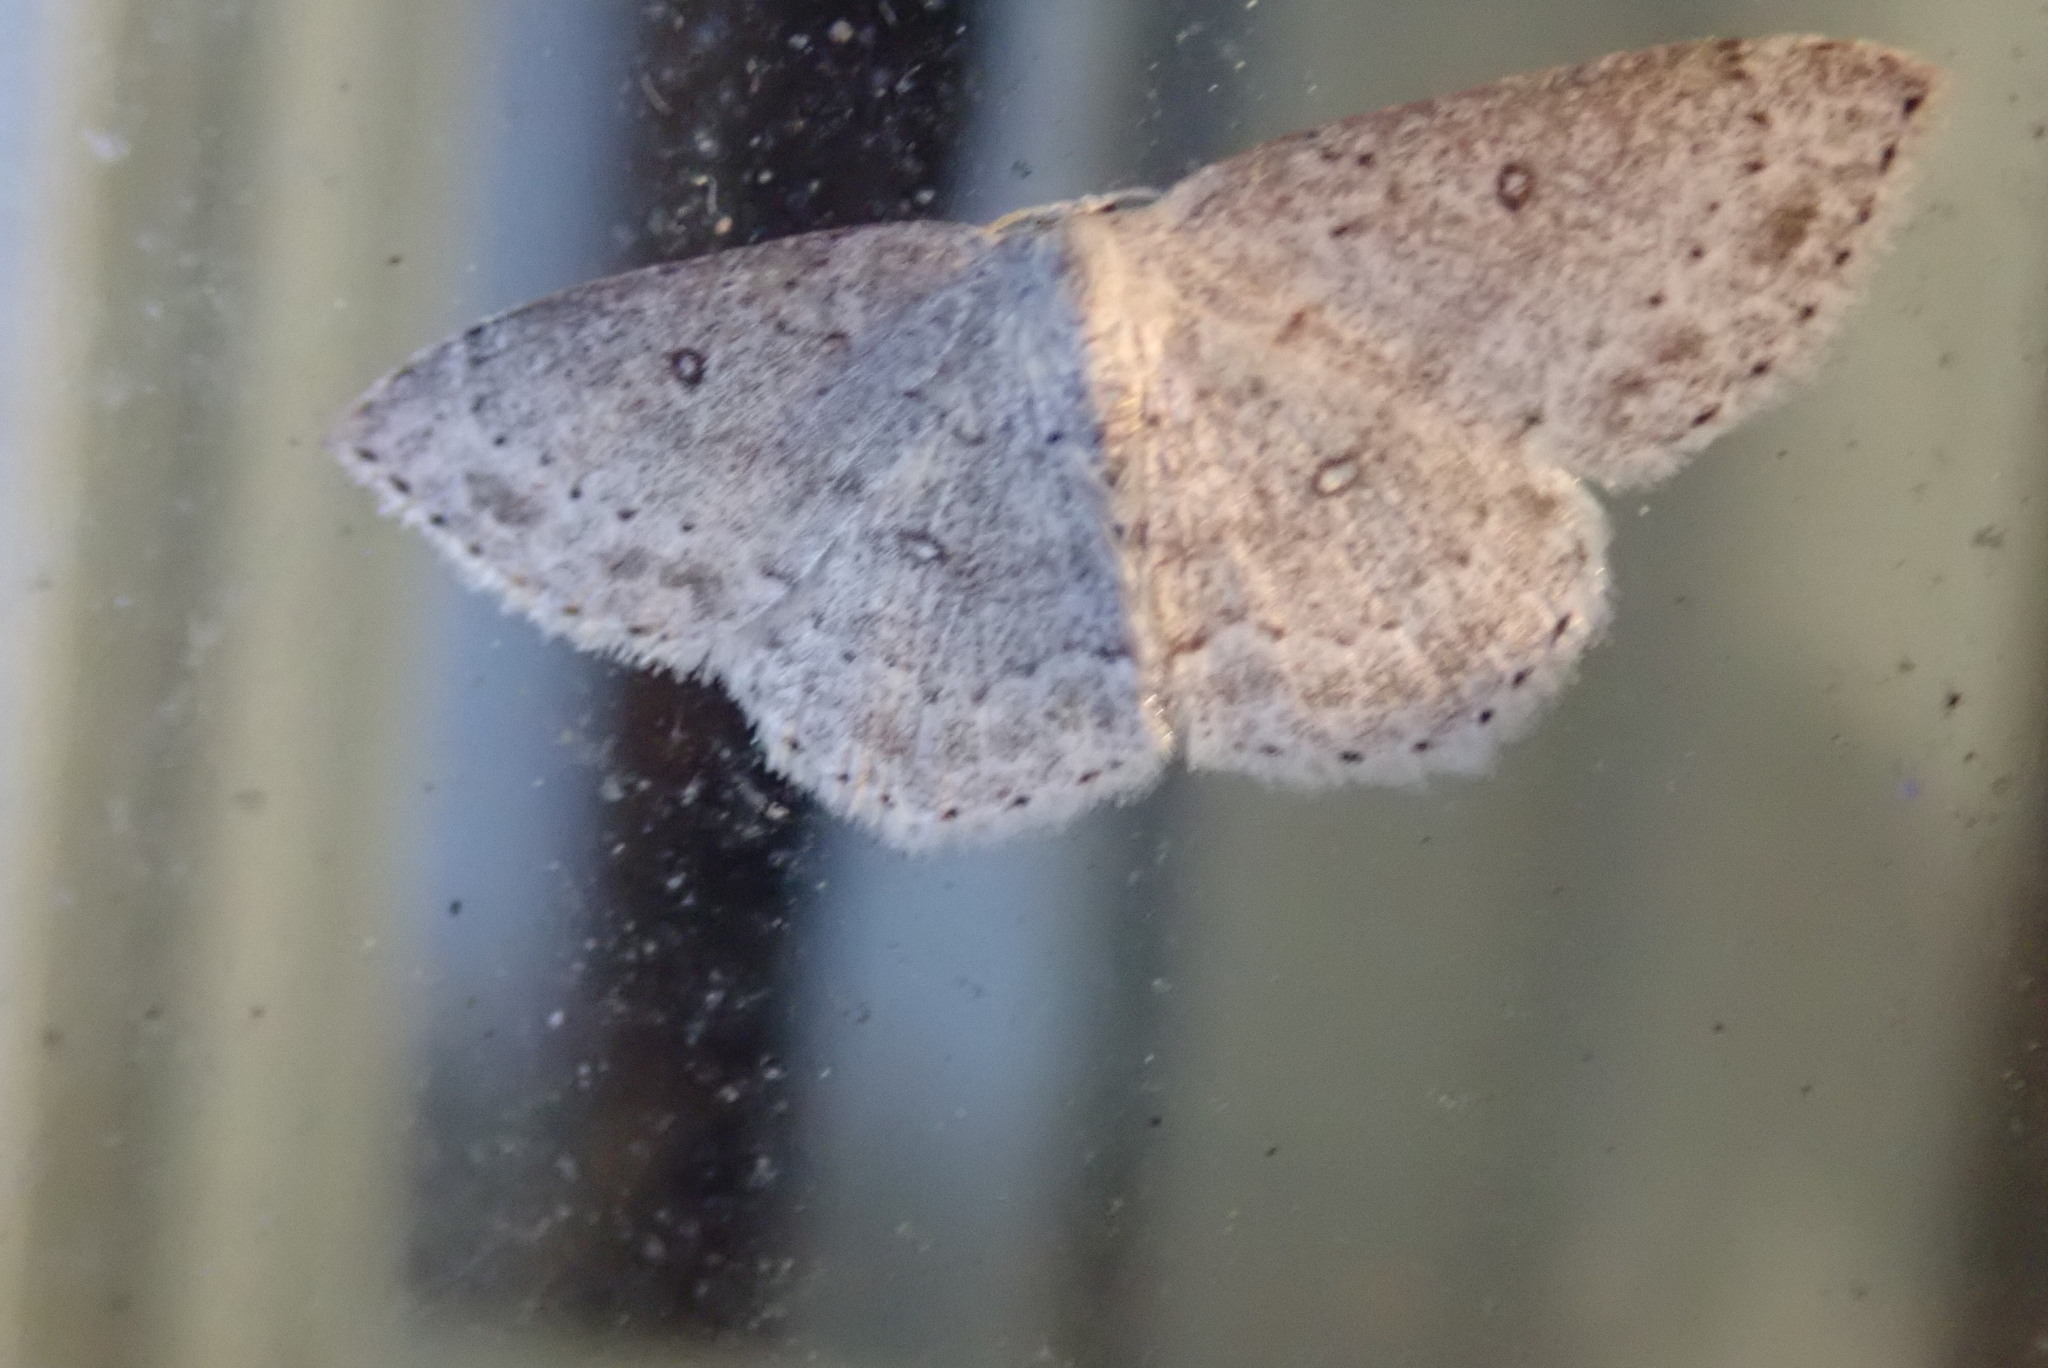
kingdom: Animalia
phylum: Arthropoda
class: Insecta
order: Lepidoptera
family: Geometridae
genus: Cyclophora
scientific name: Cyclophora pendulinaria
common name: Sweet fern geometer
